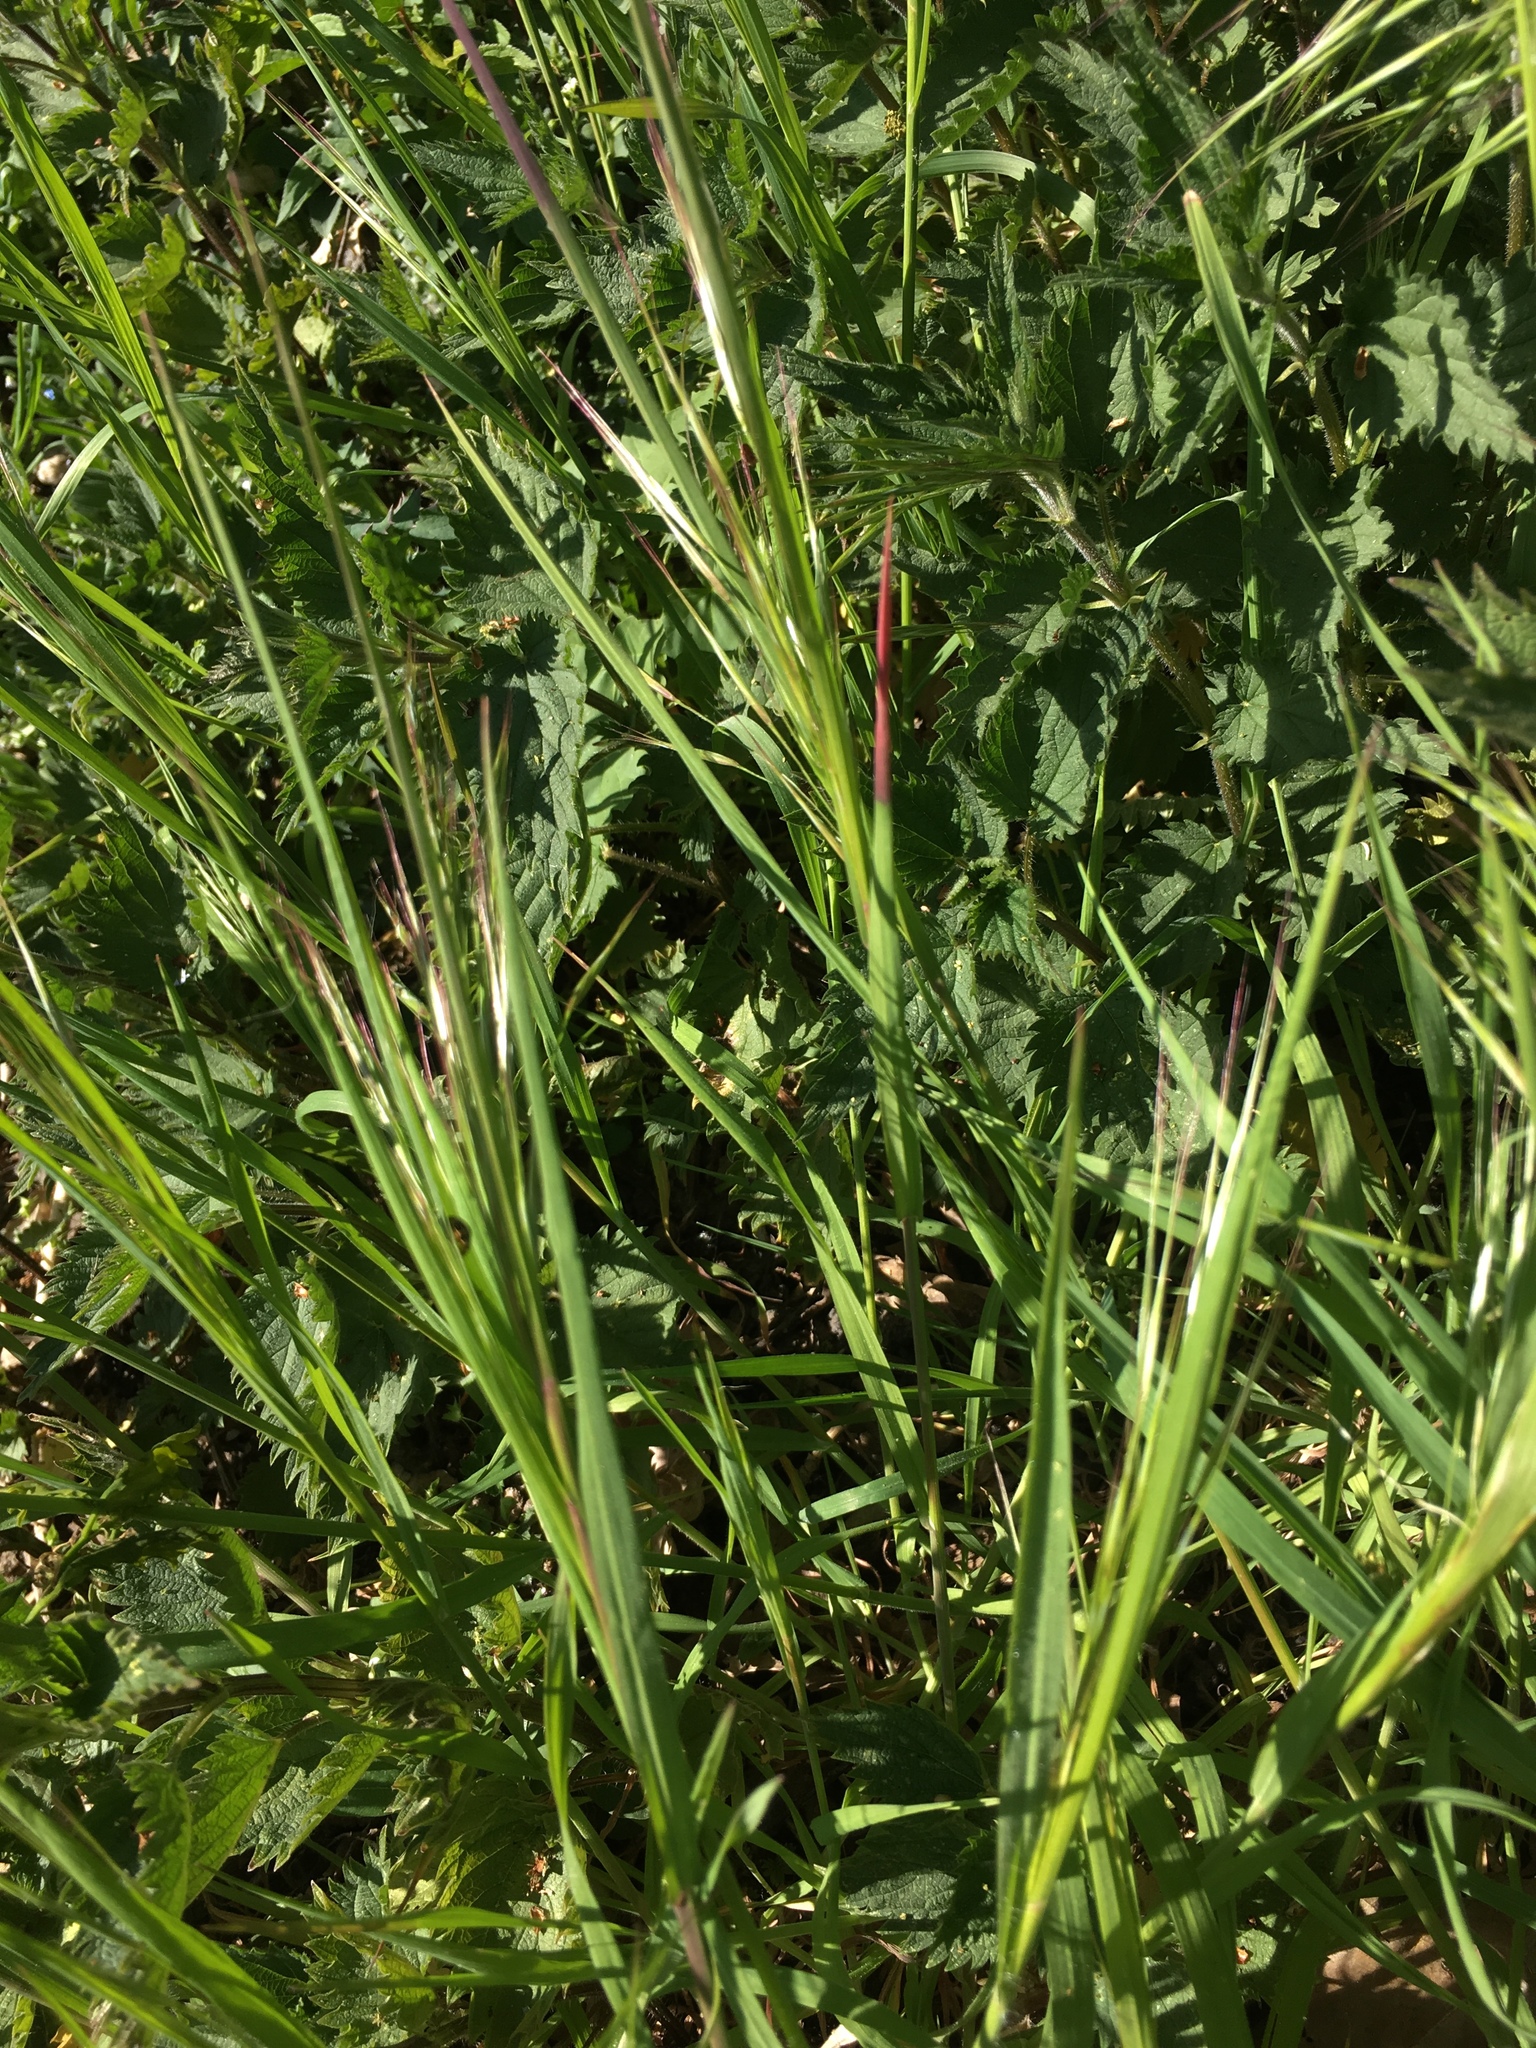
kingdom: Plantae
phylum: Tracheophyta
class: Liliopsida
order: Poales
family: Poaceae
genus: Bromus
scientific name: Bromus sterilis
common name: Poverty brome
